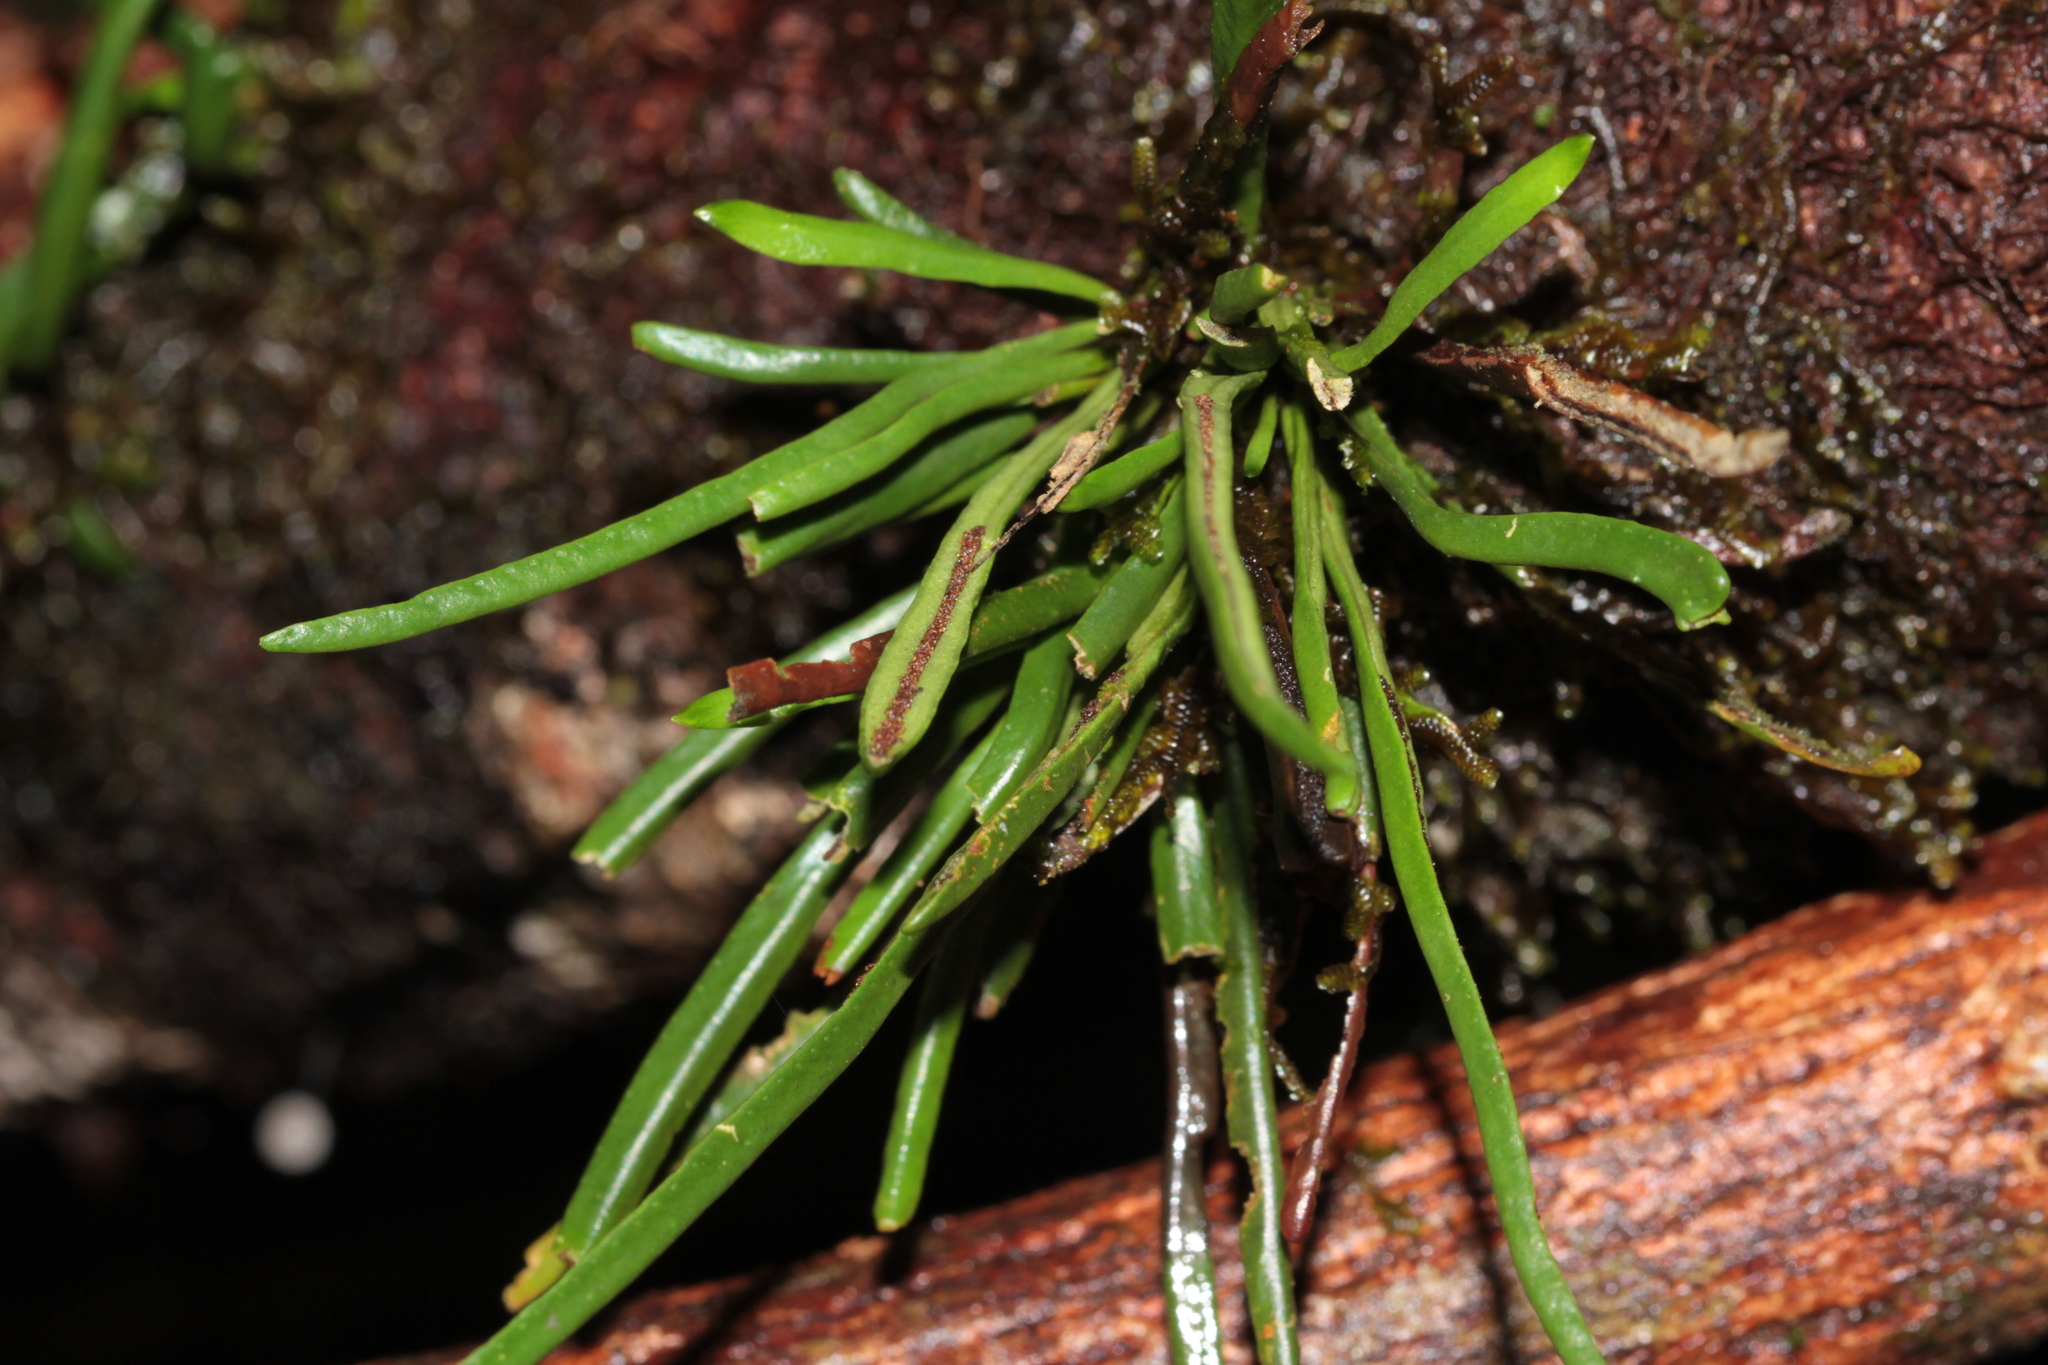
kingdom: Plantae
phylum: Tracheophyta
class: Polypodiopsida
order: Polypodiales
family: Polypodiaceae
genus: Cochlidium
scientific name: Cochlidium linearifolium
